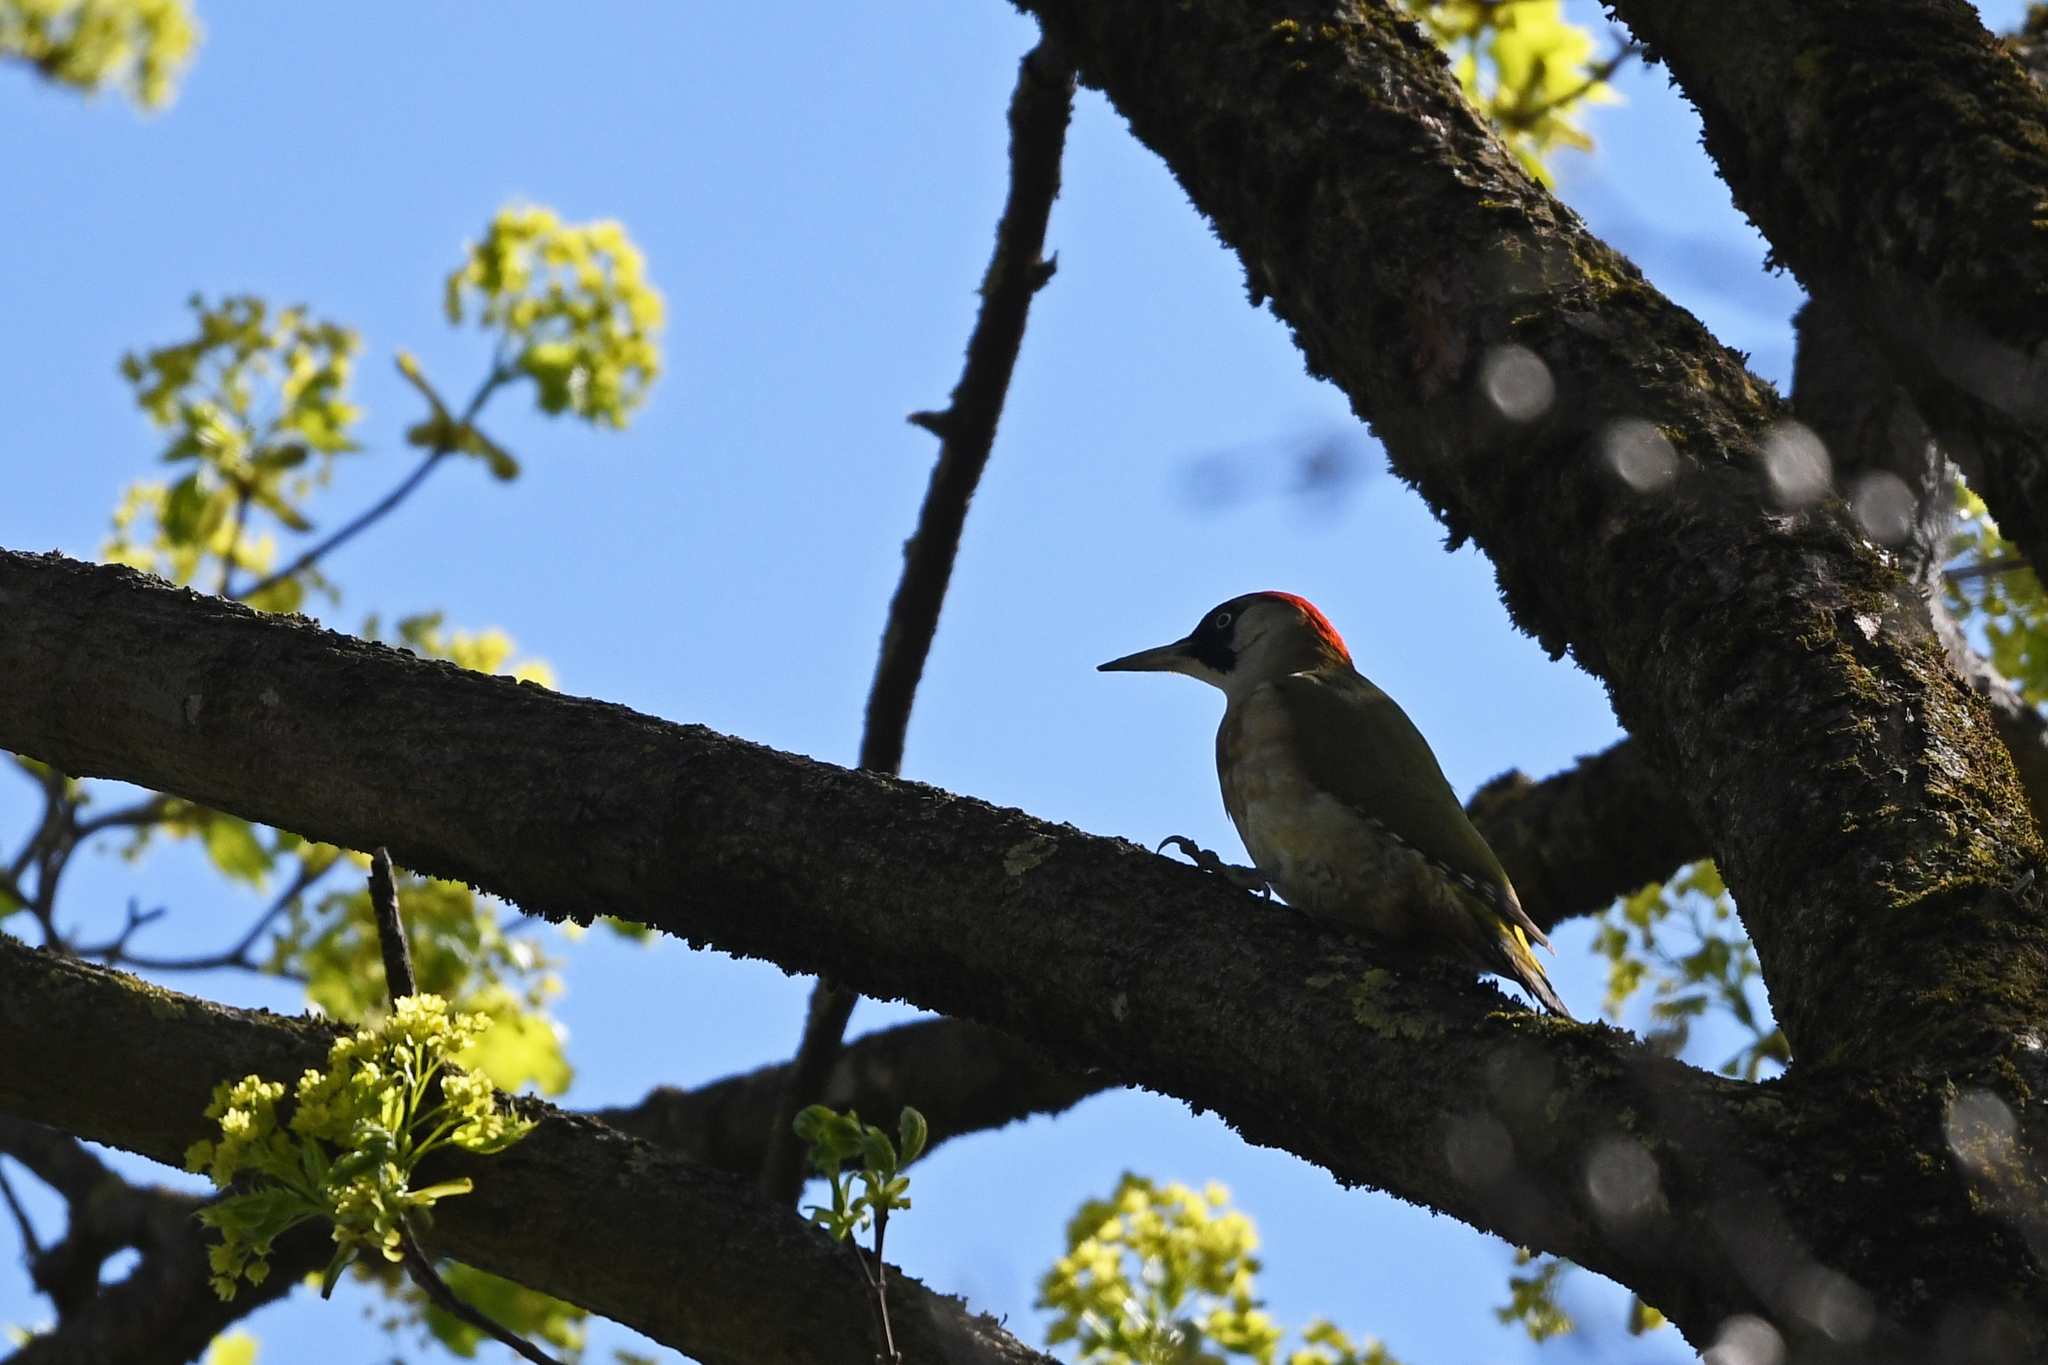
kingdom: Animalia
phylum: Chordata
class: Aves
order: Piciformes
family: Picidae
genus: Picus
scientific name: Picus viridis
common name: European green woodpecker
